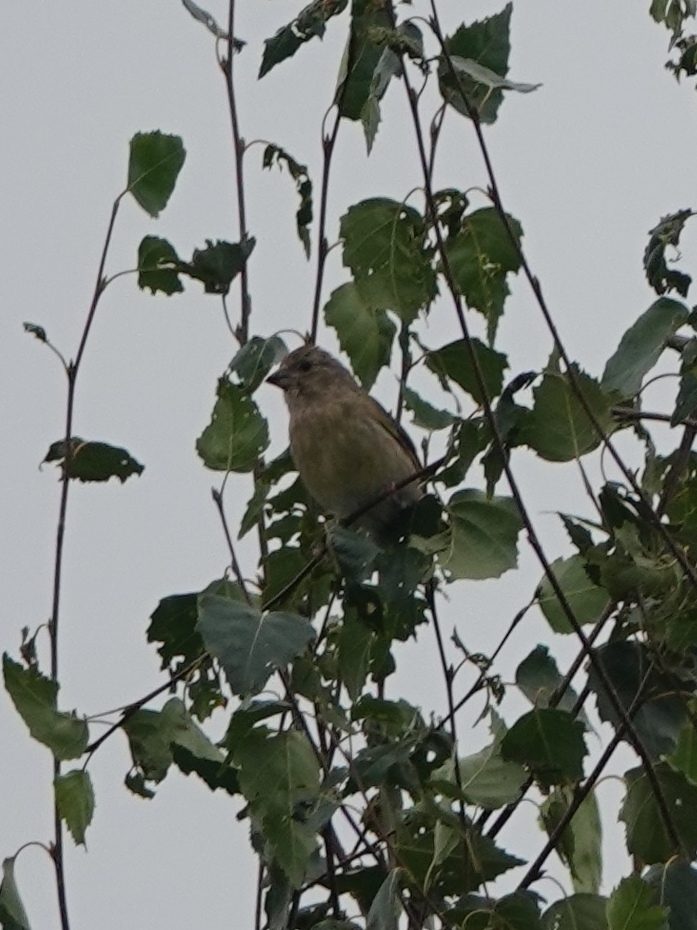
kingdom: Plantae
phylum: Tracheophyta
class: Liliopsida
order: Poales
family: Poaceae
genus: Chloris
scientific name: Chloris chloris
